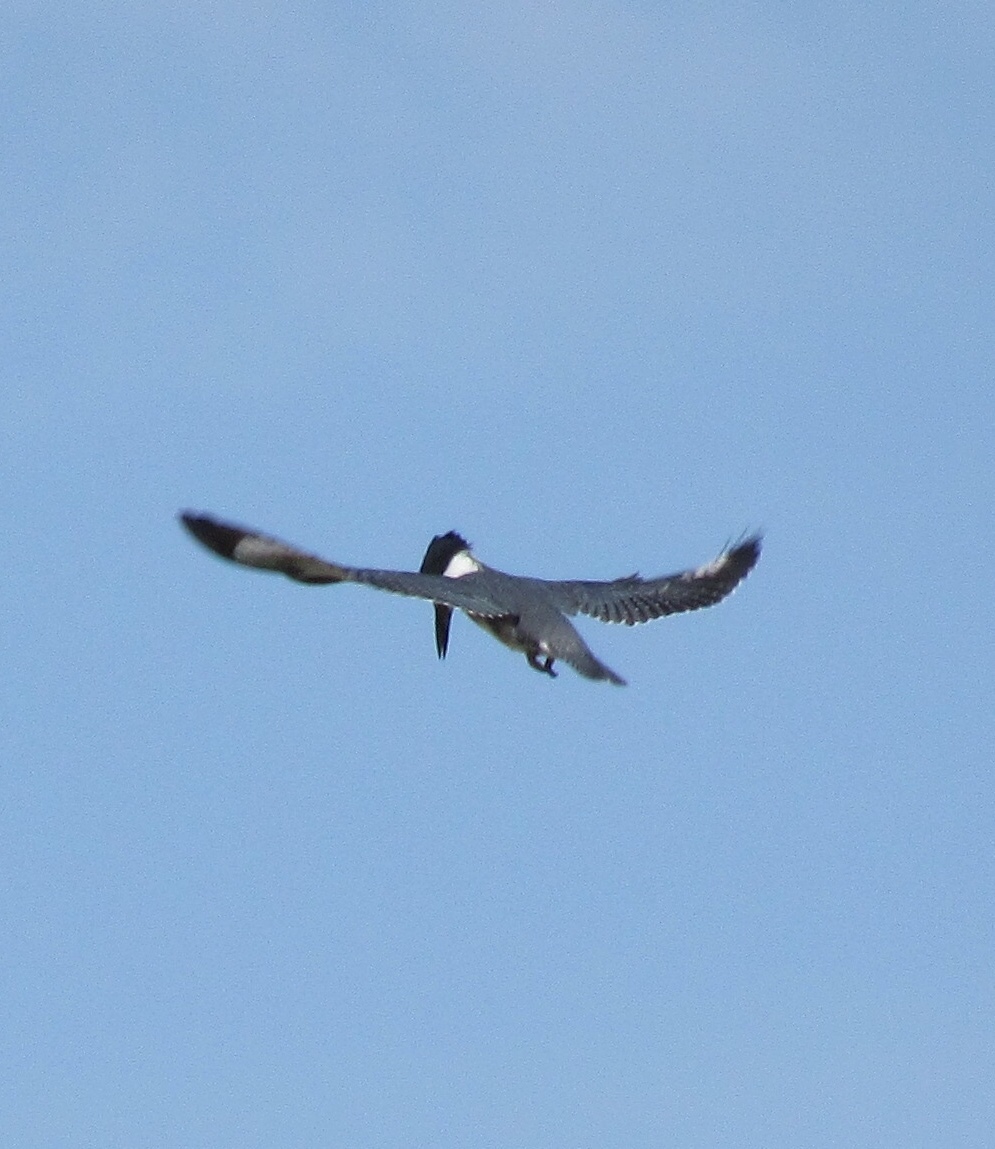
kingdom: Animalia
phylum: Chordata
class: Aves
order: Coraciiformes
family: Alcedinidae
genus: Megaceryle
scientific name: Megaceryle alcyon
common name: Belted kingfisher
